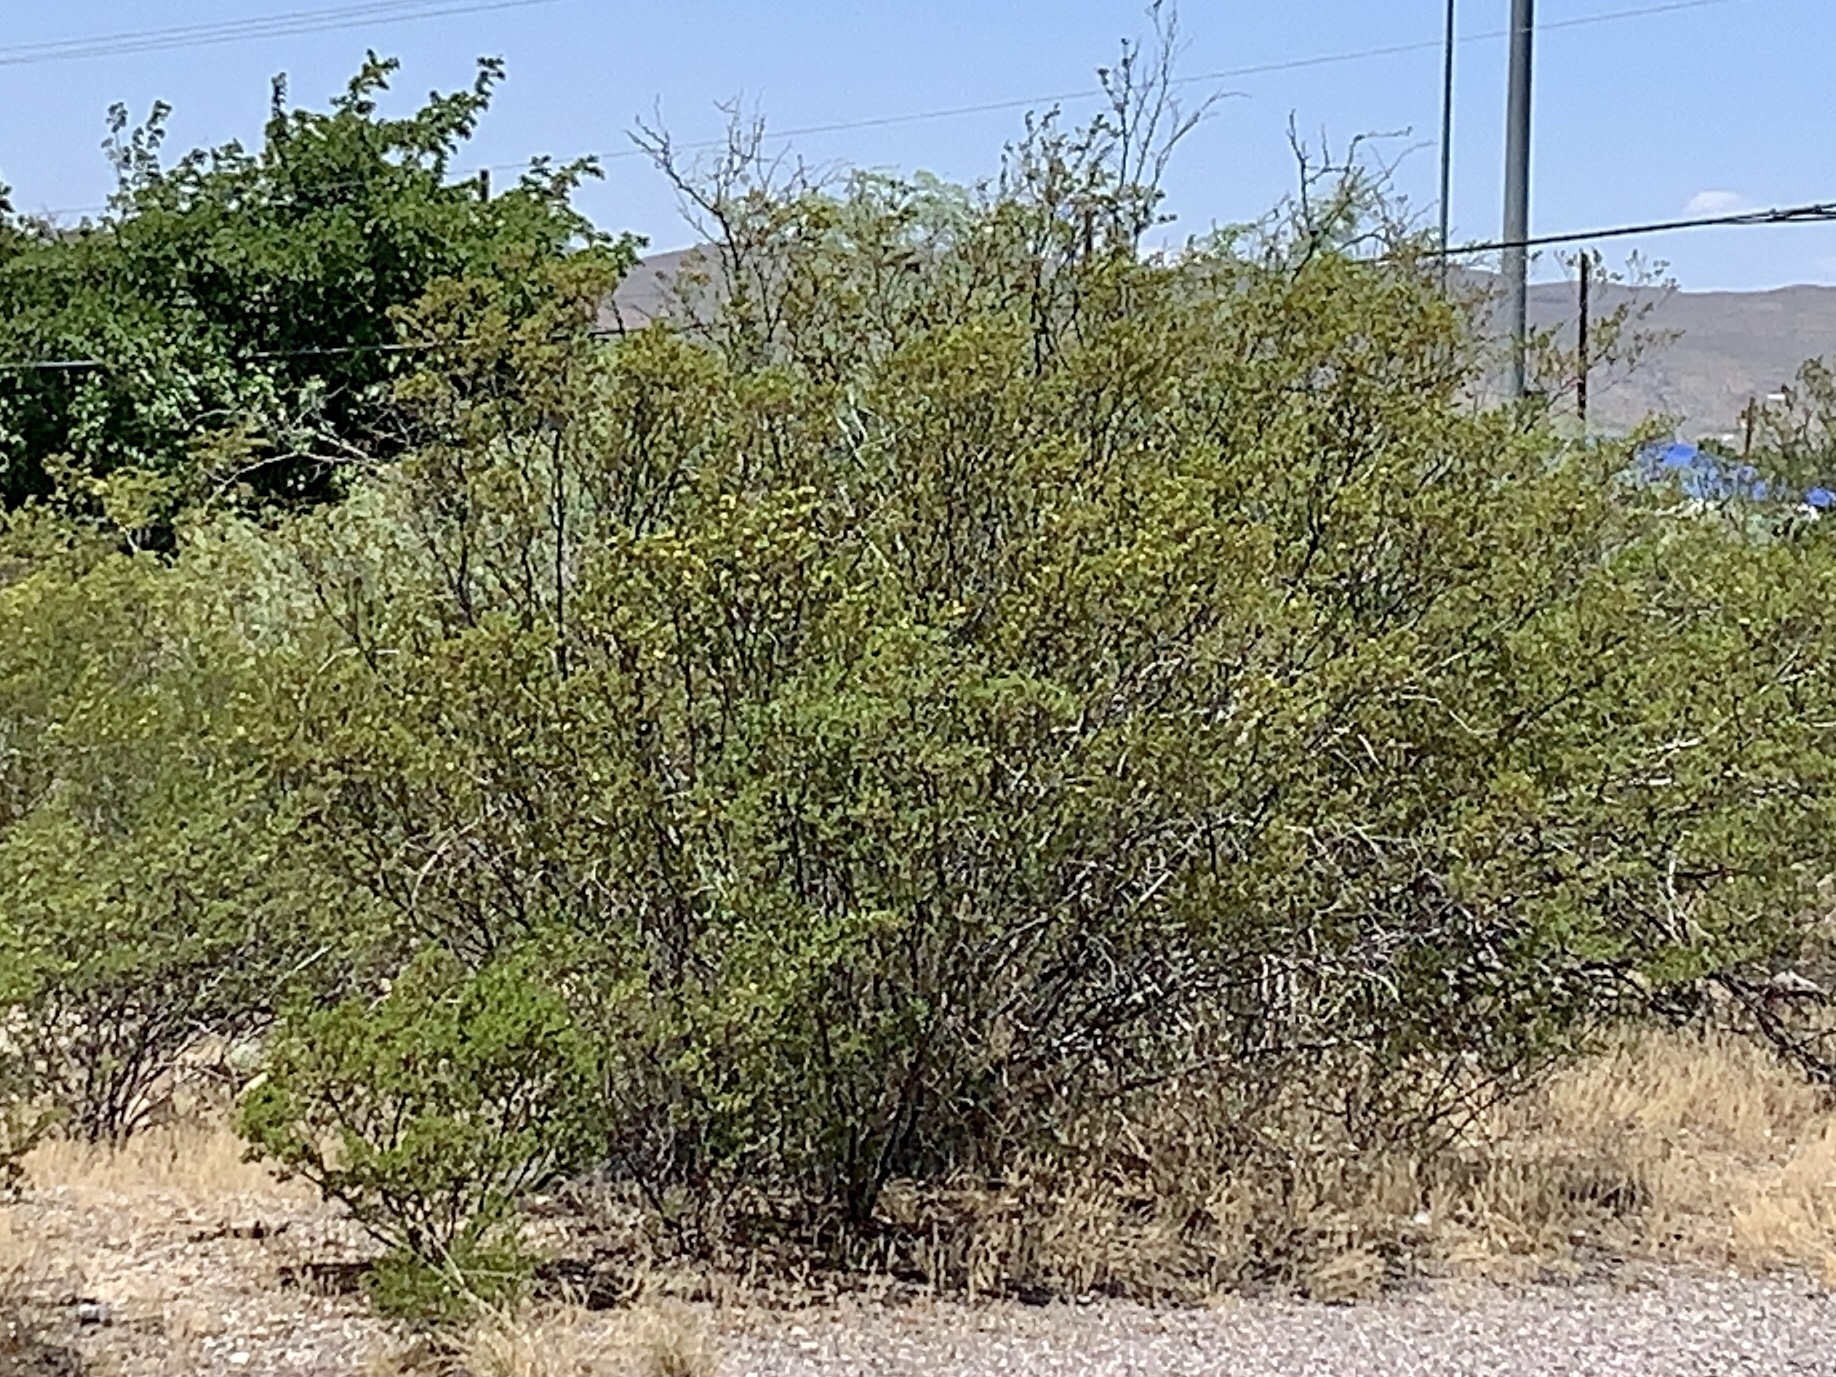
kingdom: Plantae
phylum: Tracheophyta
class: Magnoliopsida
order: Zygophyllales
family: Zygophyllaceae
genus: Larrea
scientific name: Larrea tridentata
